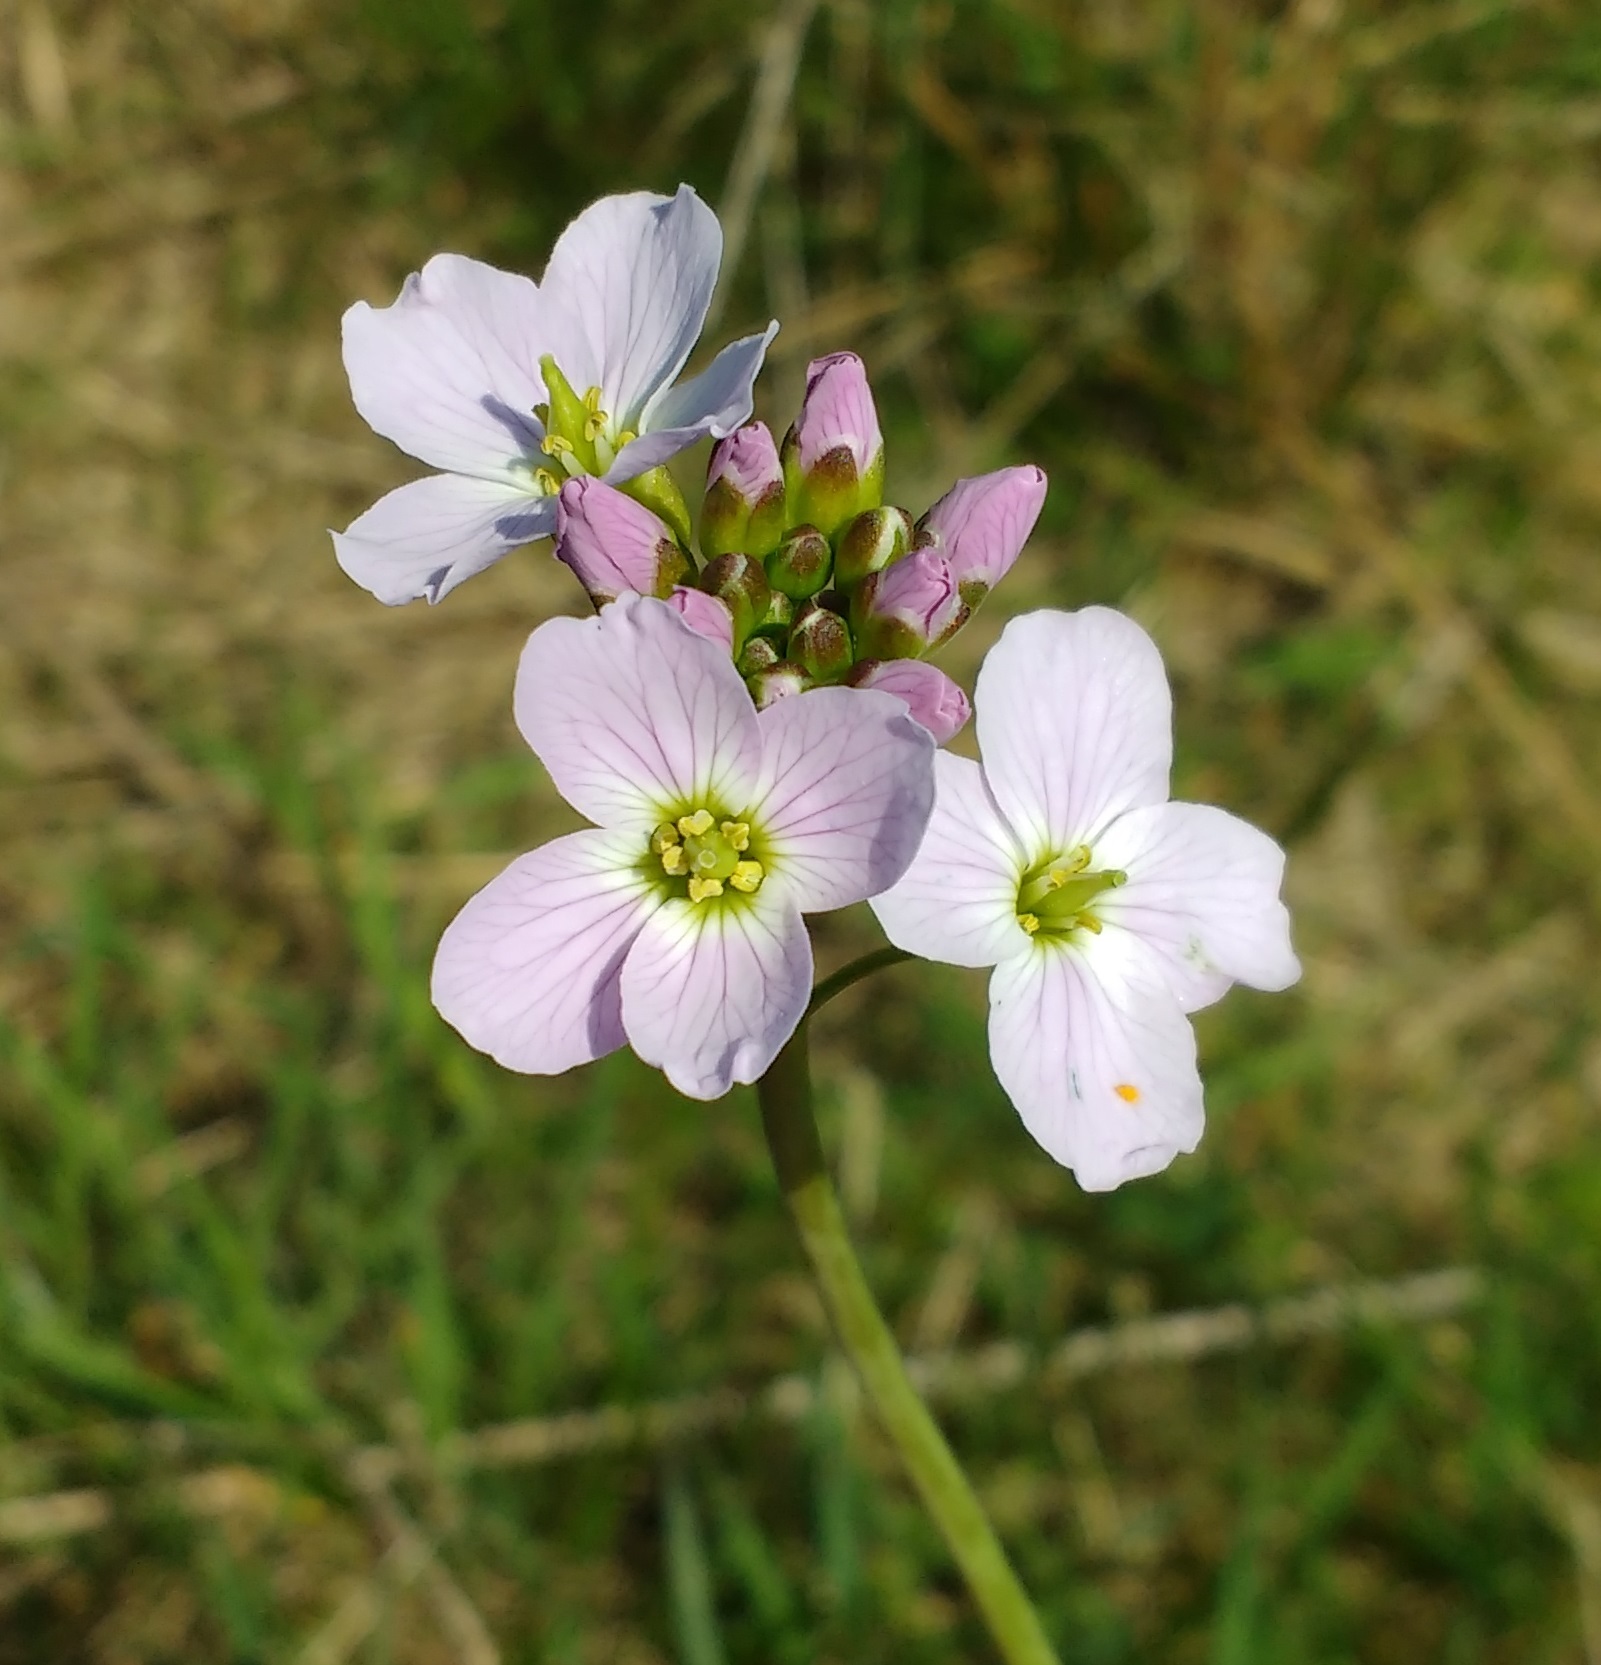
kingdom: Plantae
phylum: Tracheophyta
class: Magnoliopsida
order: Brassicales
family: Brassicaceae
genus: Cardamine
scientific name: Cardamine pratensis
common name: Cuckoo flower
